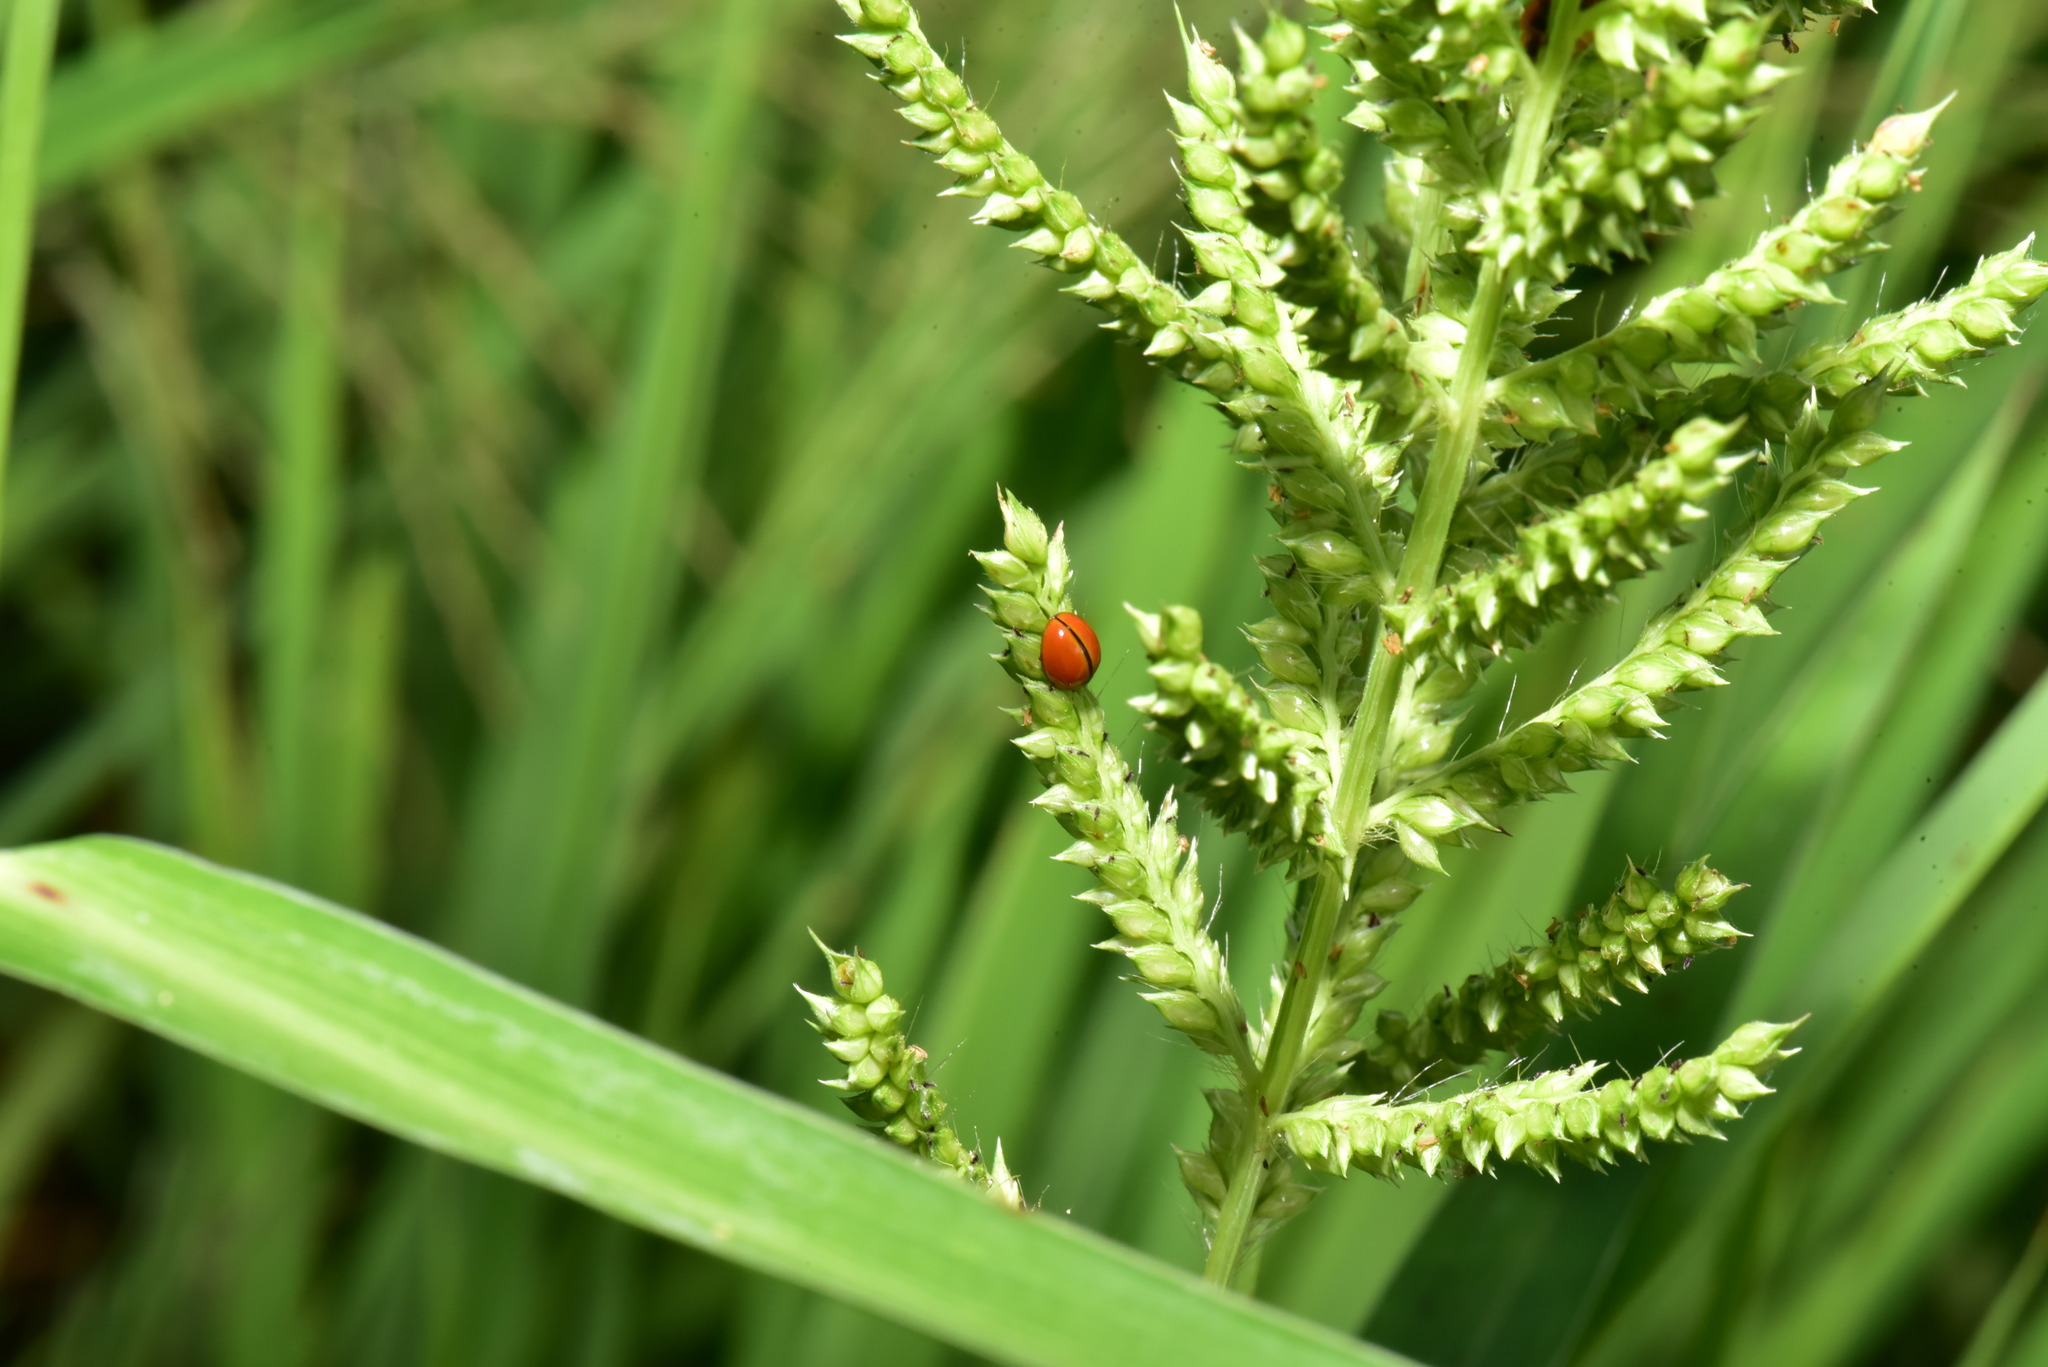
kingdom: Animalia
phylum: Arthropoda
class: Insecta
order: Coleoptera
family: Coccinellidae
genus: Micraspis
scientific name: Micraspis discolor
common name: Lady beetle
